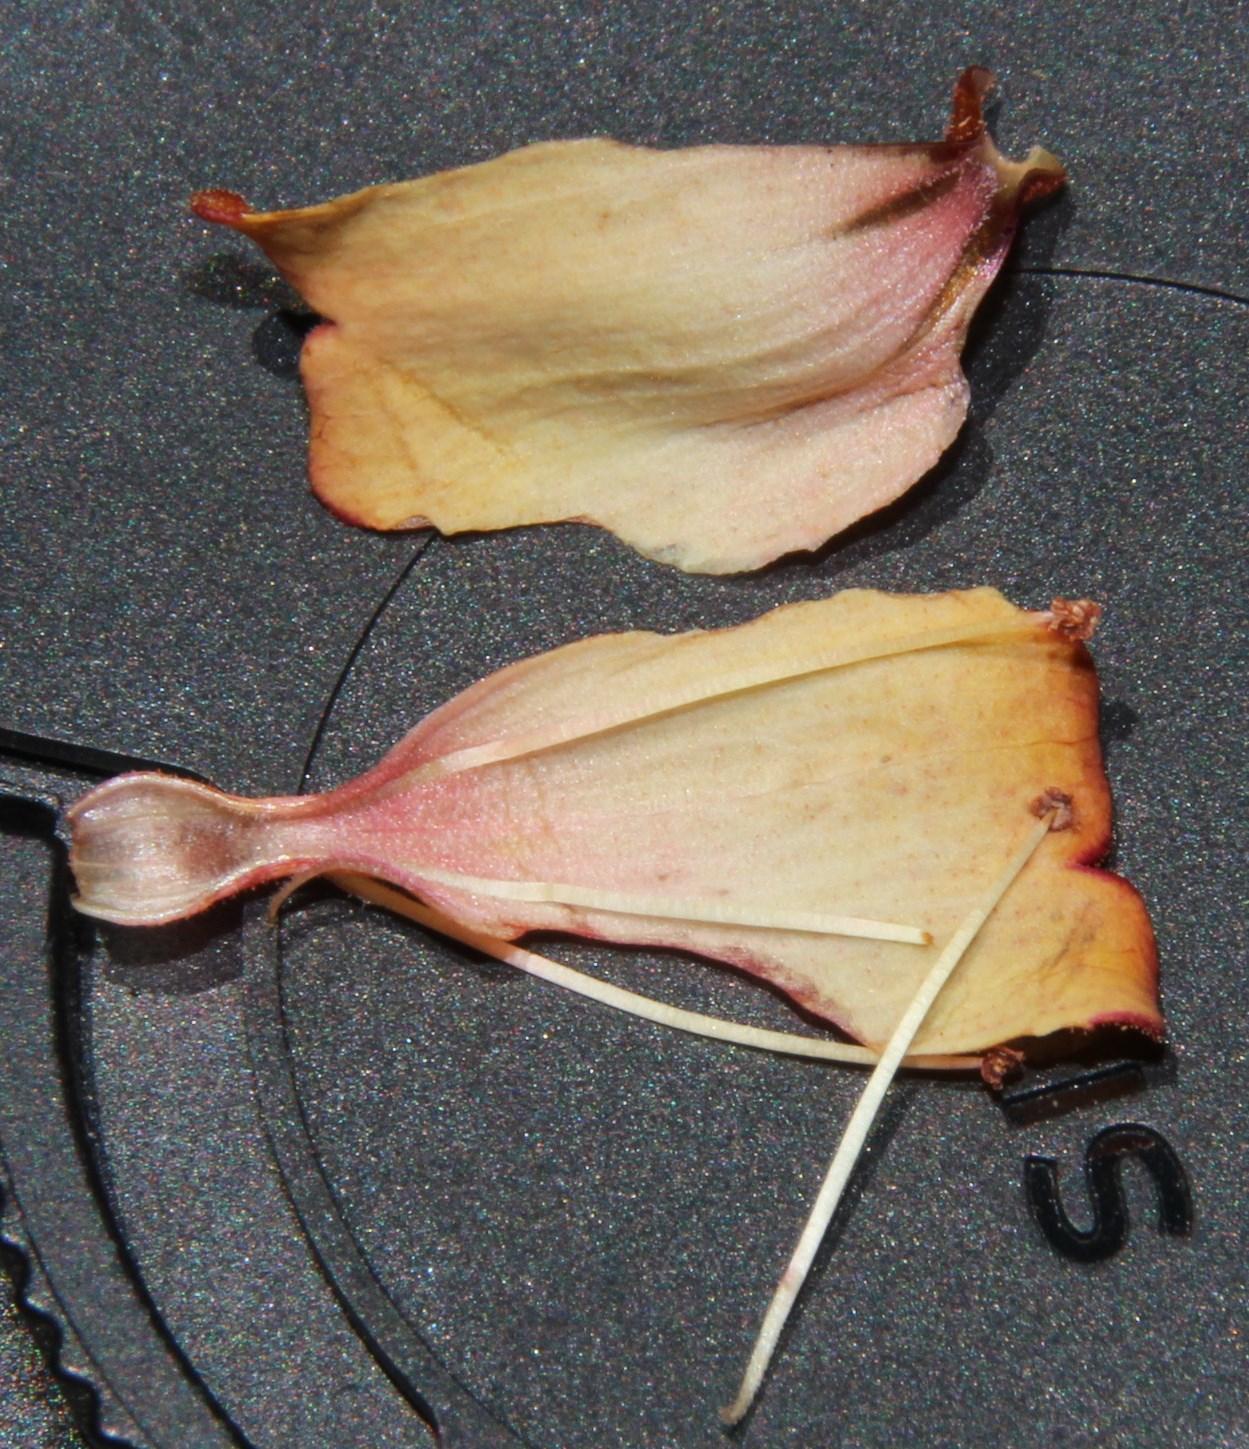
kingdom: Plantae
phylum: Tracheophyta
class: Magnoliopsida
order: Lamiales
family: Stilbaceae
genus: Halleria
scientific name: Halleria elliptica
